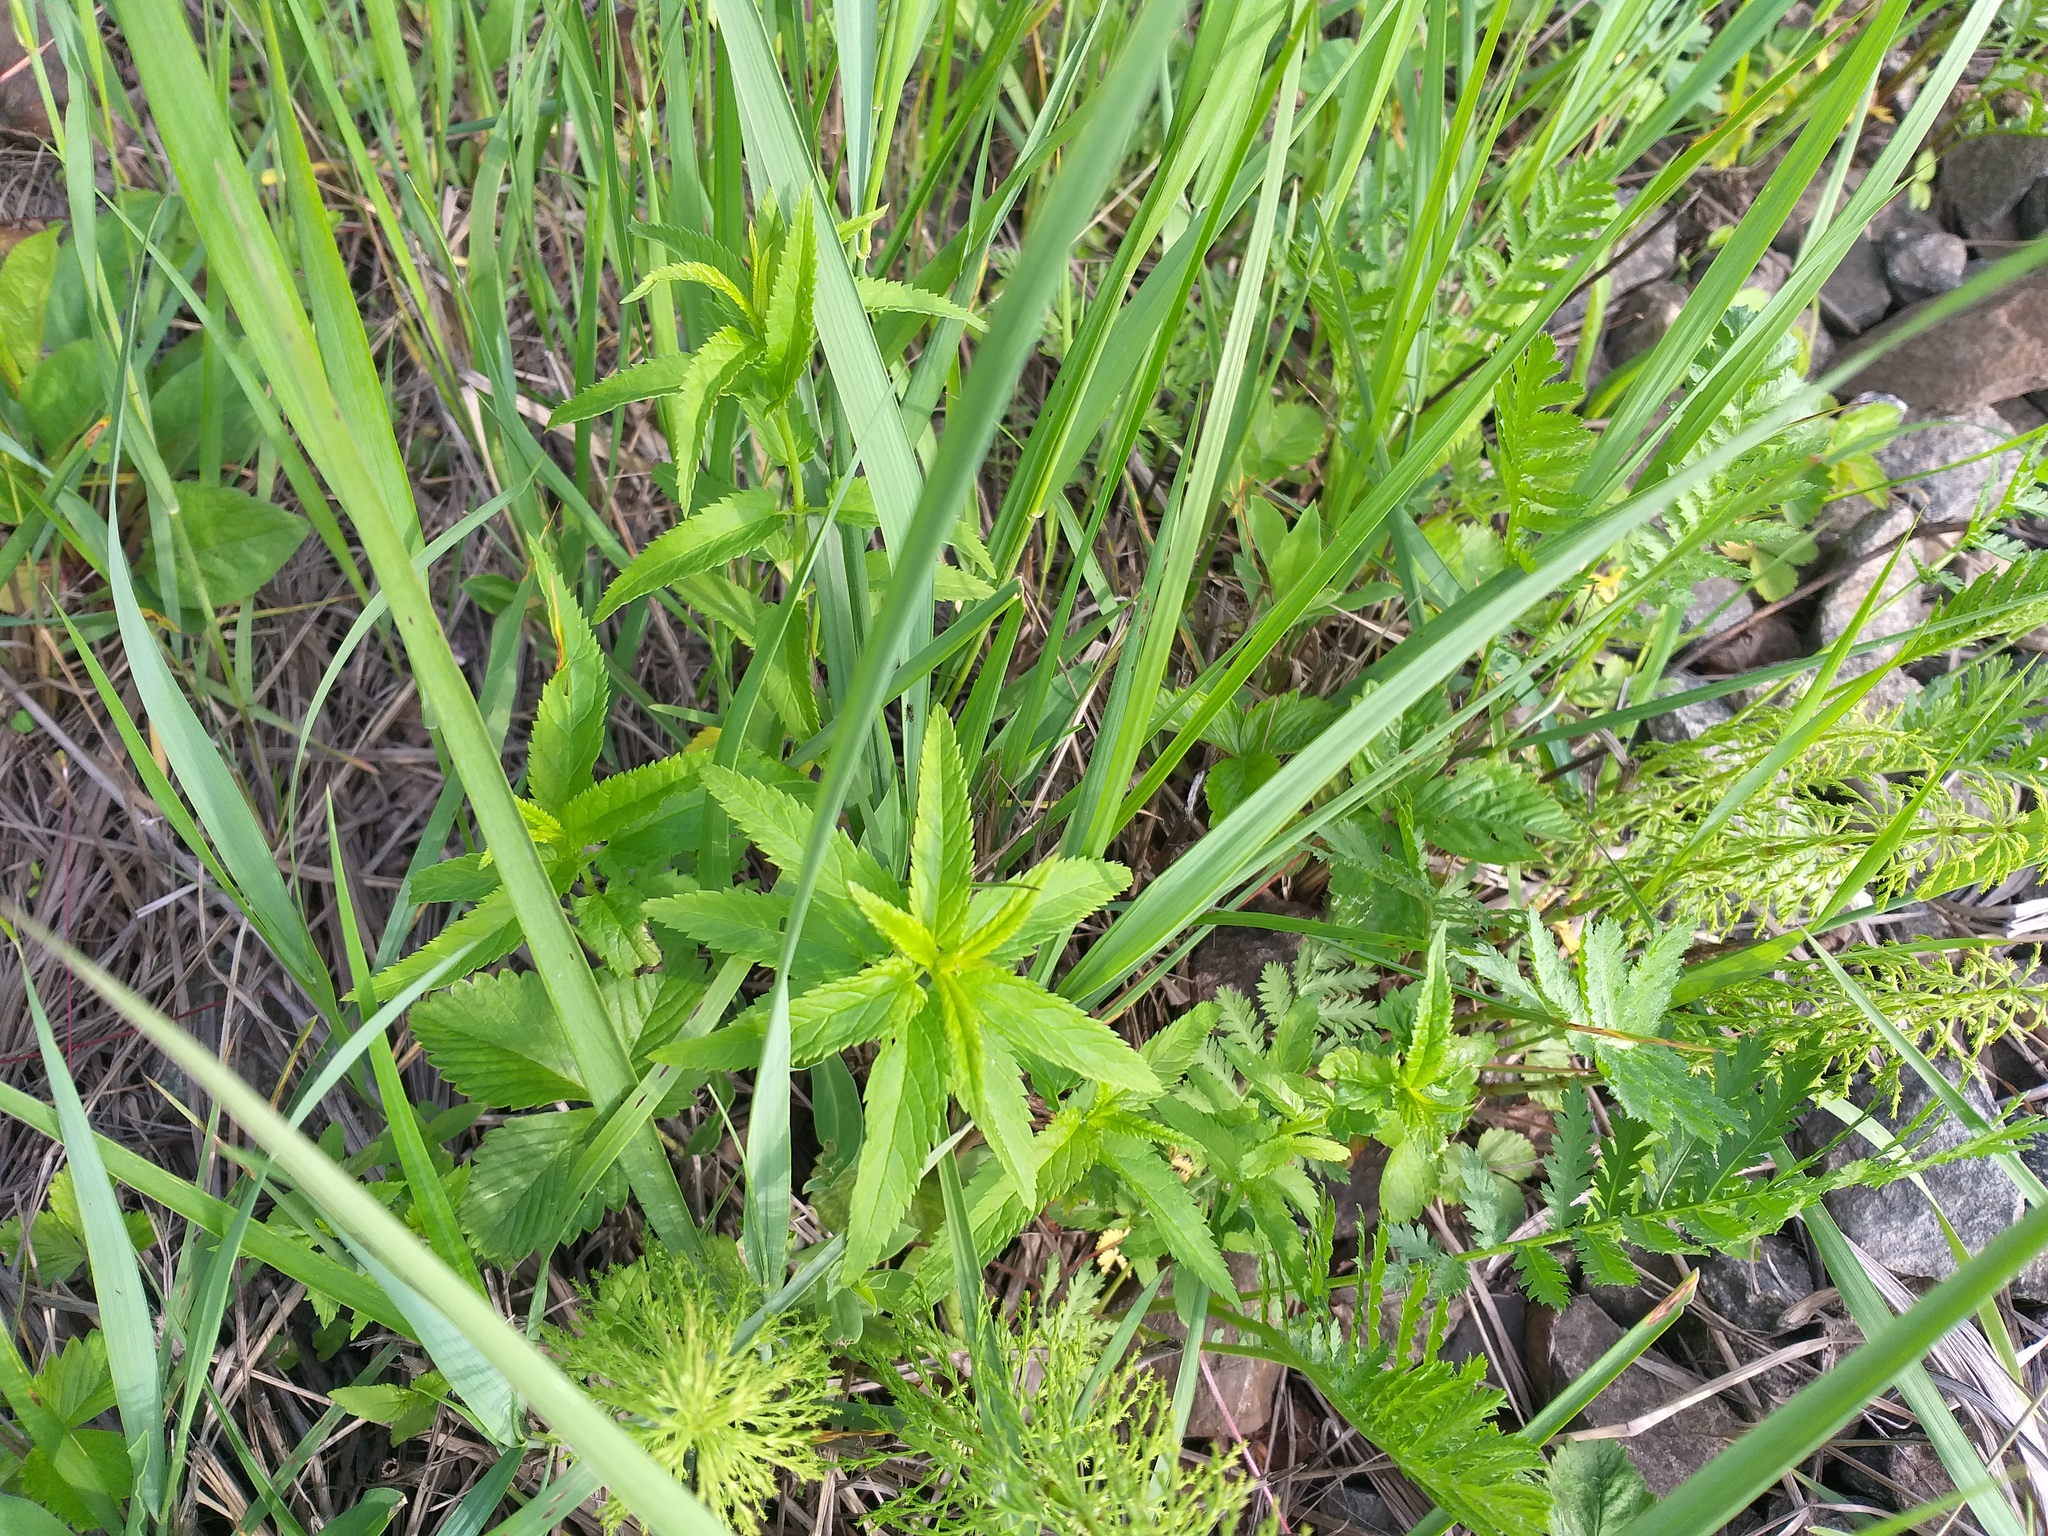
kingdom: Plantae
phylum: Tracheophyta
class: Magnoliopsida
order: Lamiales
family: Plantaginaceae
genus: Veronica
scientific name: Veronica longifolia
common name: Garden speedwell
